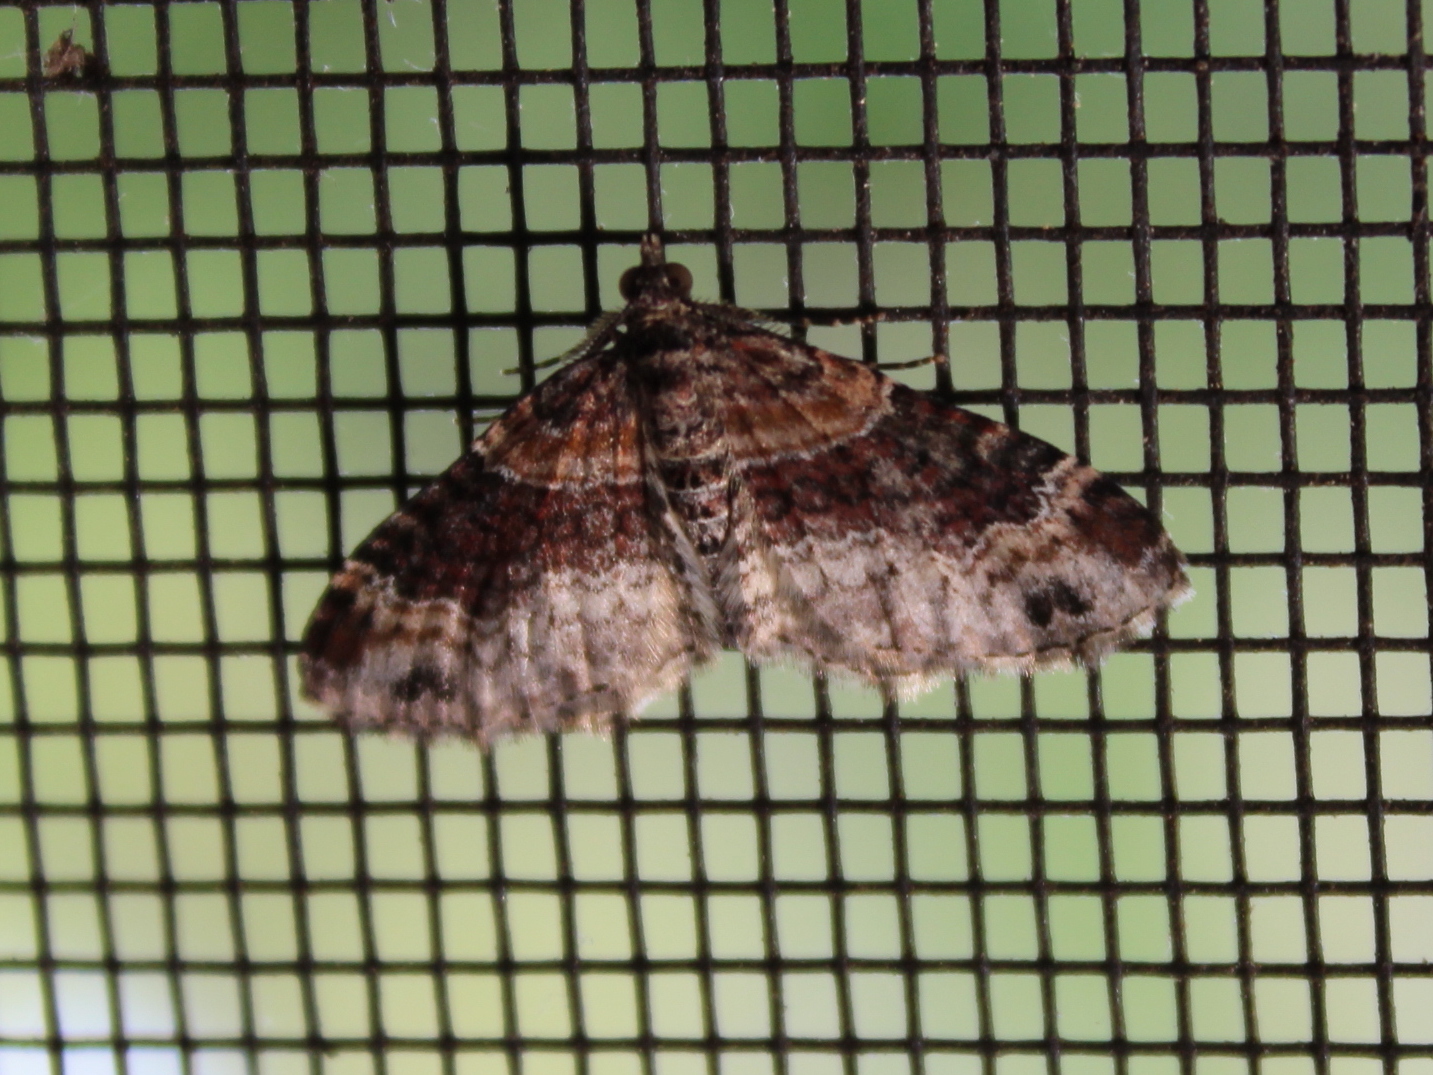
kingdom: Animalia
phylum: Arthropoda
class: Insecta
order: Lepidoptera
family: Geometridae
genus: Xanthorhoe
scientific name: Xanthorhoe ferrugata
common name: Dark-barred twin-spot carpet
